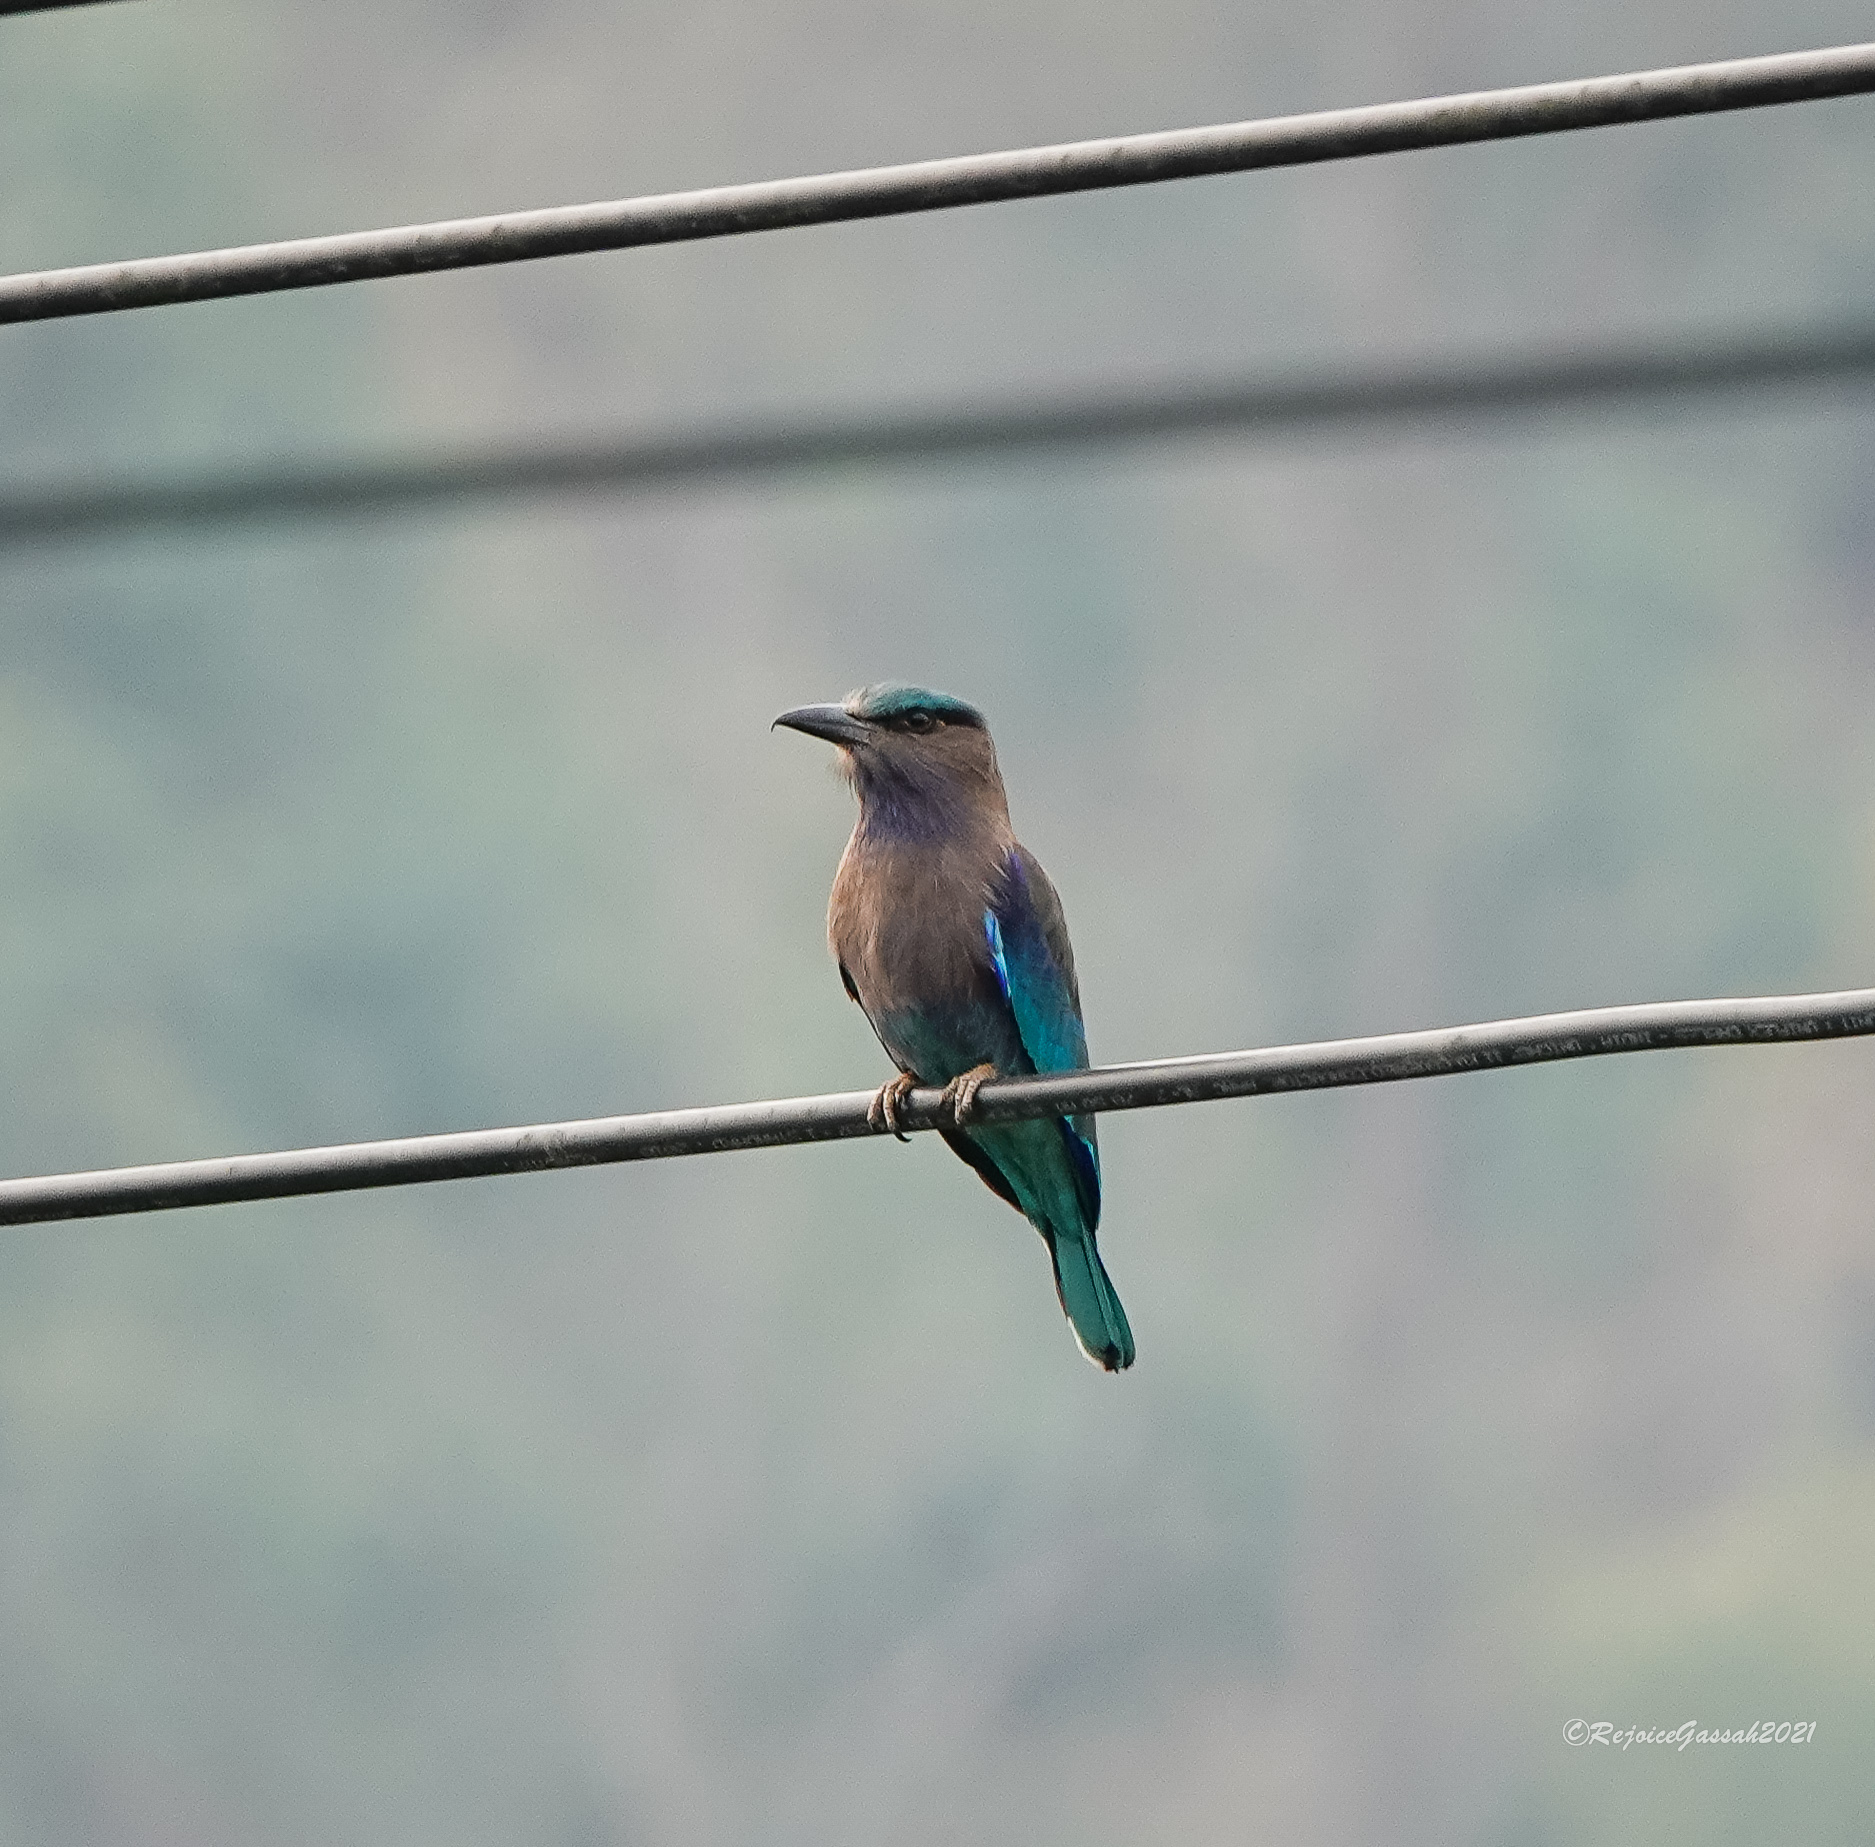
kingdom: Animalia
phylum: Chordata
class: Aves
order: Coraciiformes
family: Coraciidae
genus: Coracias
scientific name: Coracias affinis
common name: Indochinese roller
